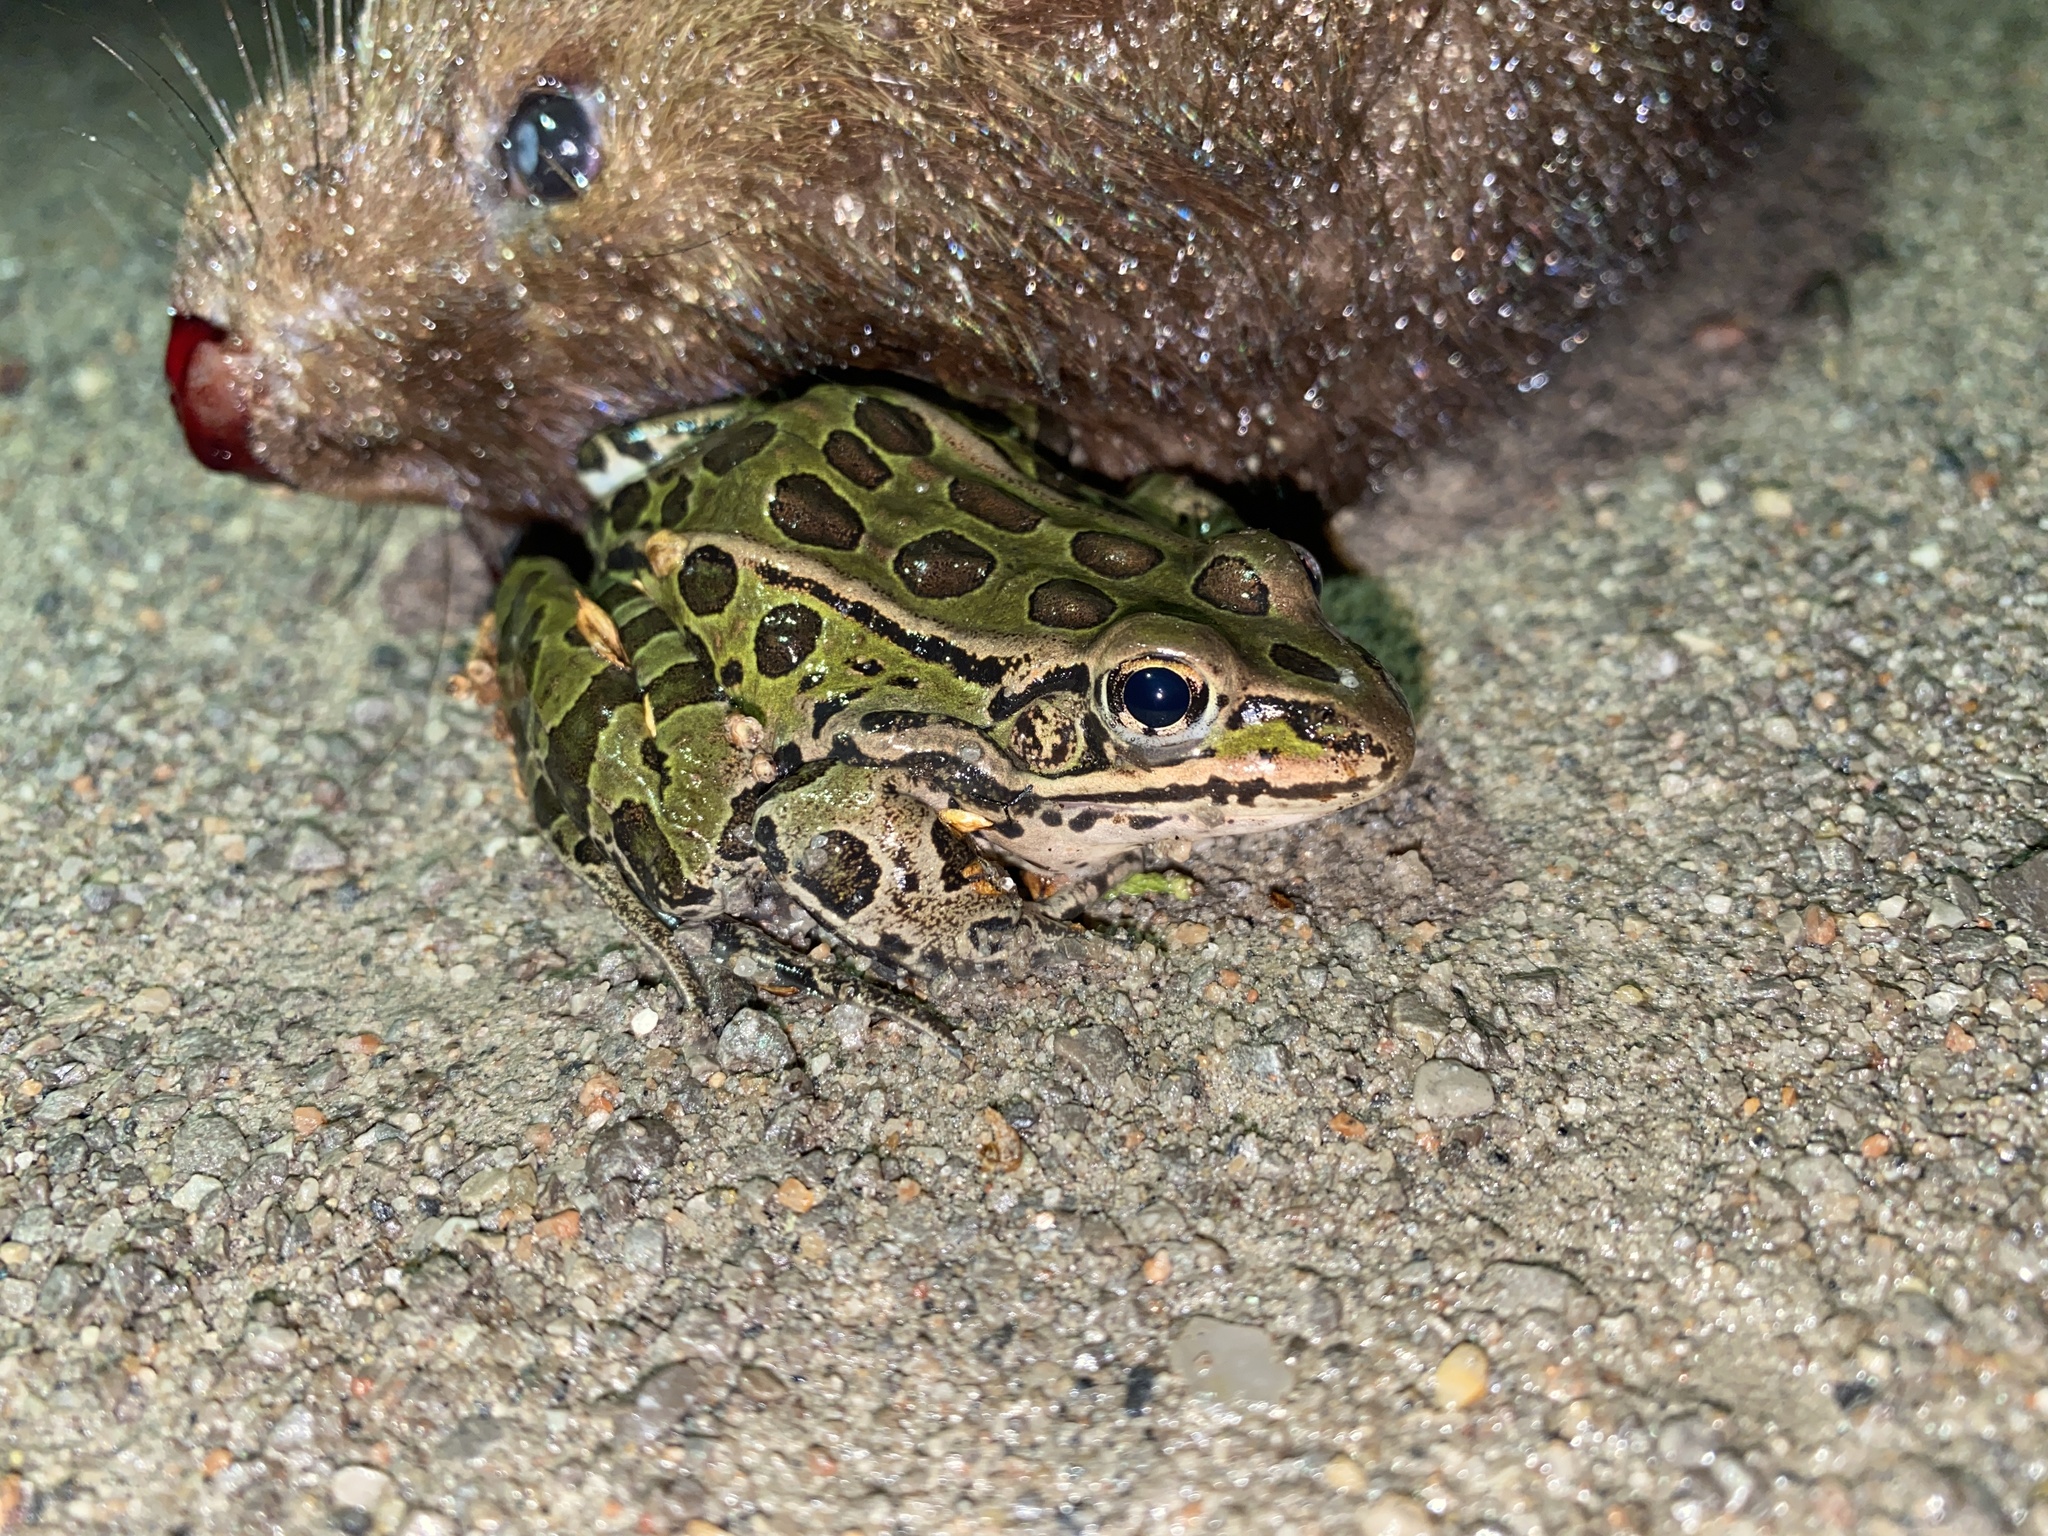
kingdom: Animalia
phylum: Chordata
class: Amphibia
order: Anura
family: Ranidae
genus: Lithobates
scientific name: Lithobates pipiens
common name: Northern leopard frog
